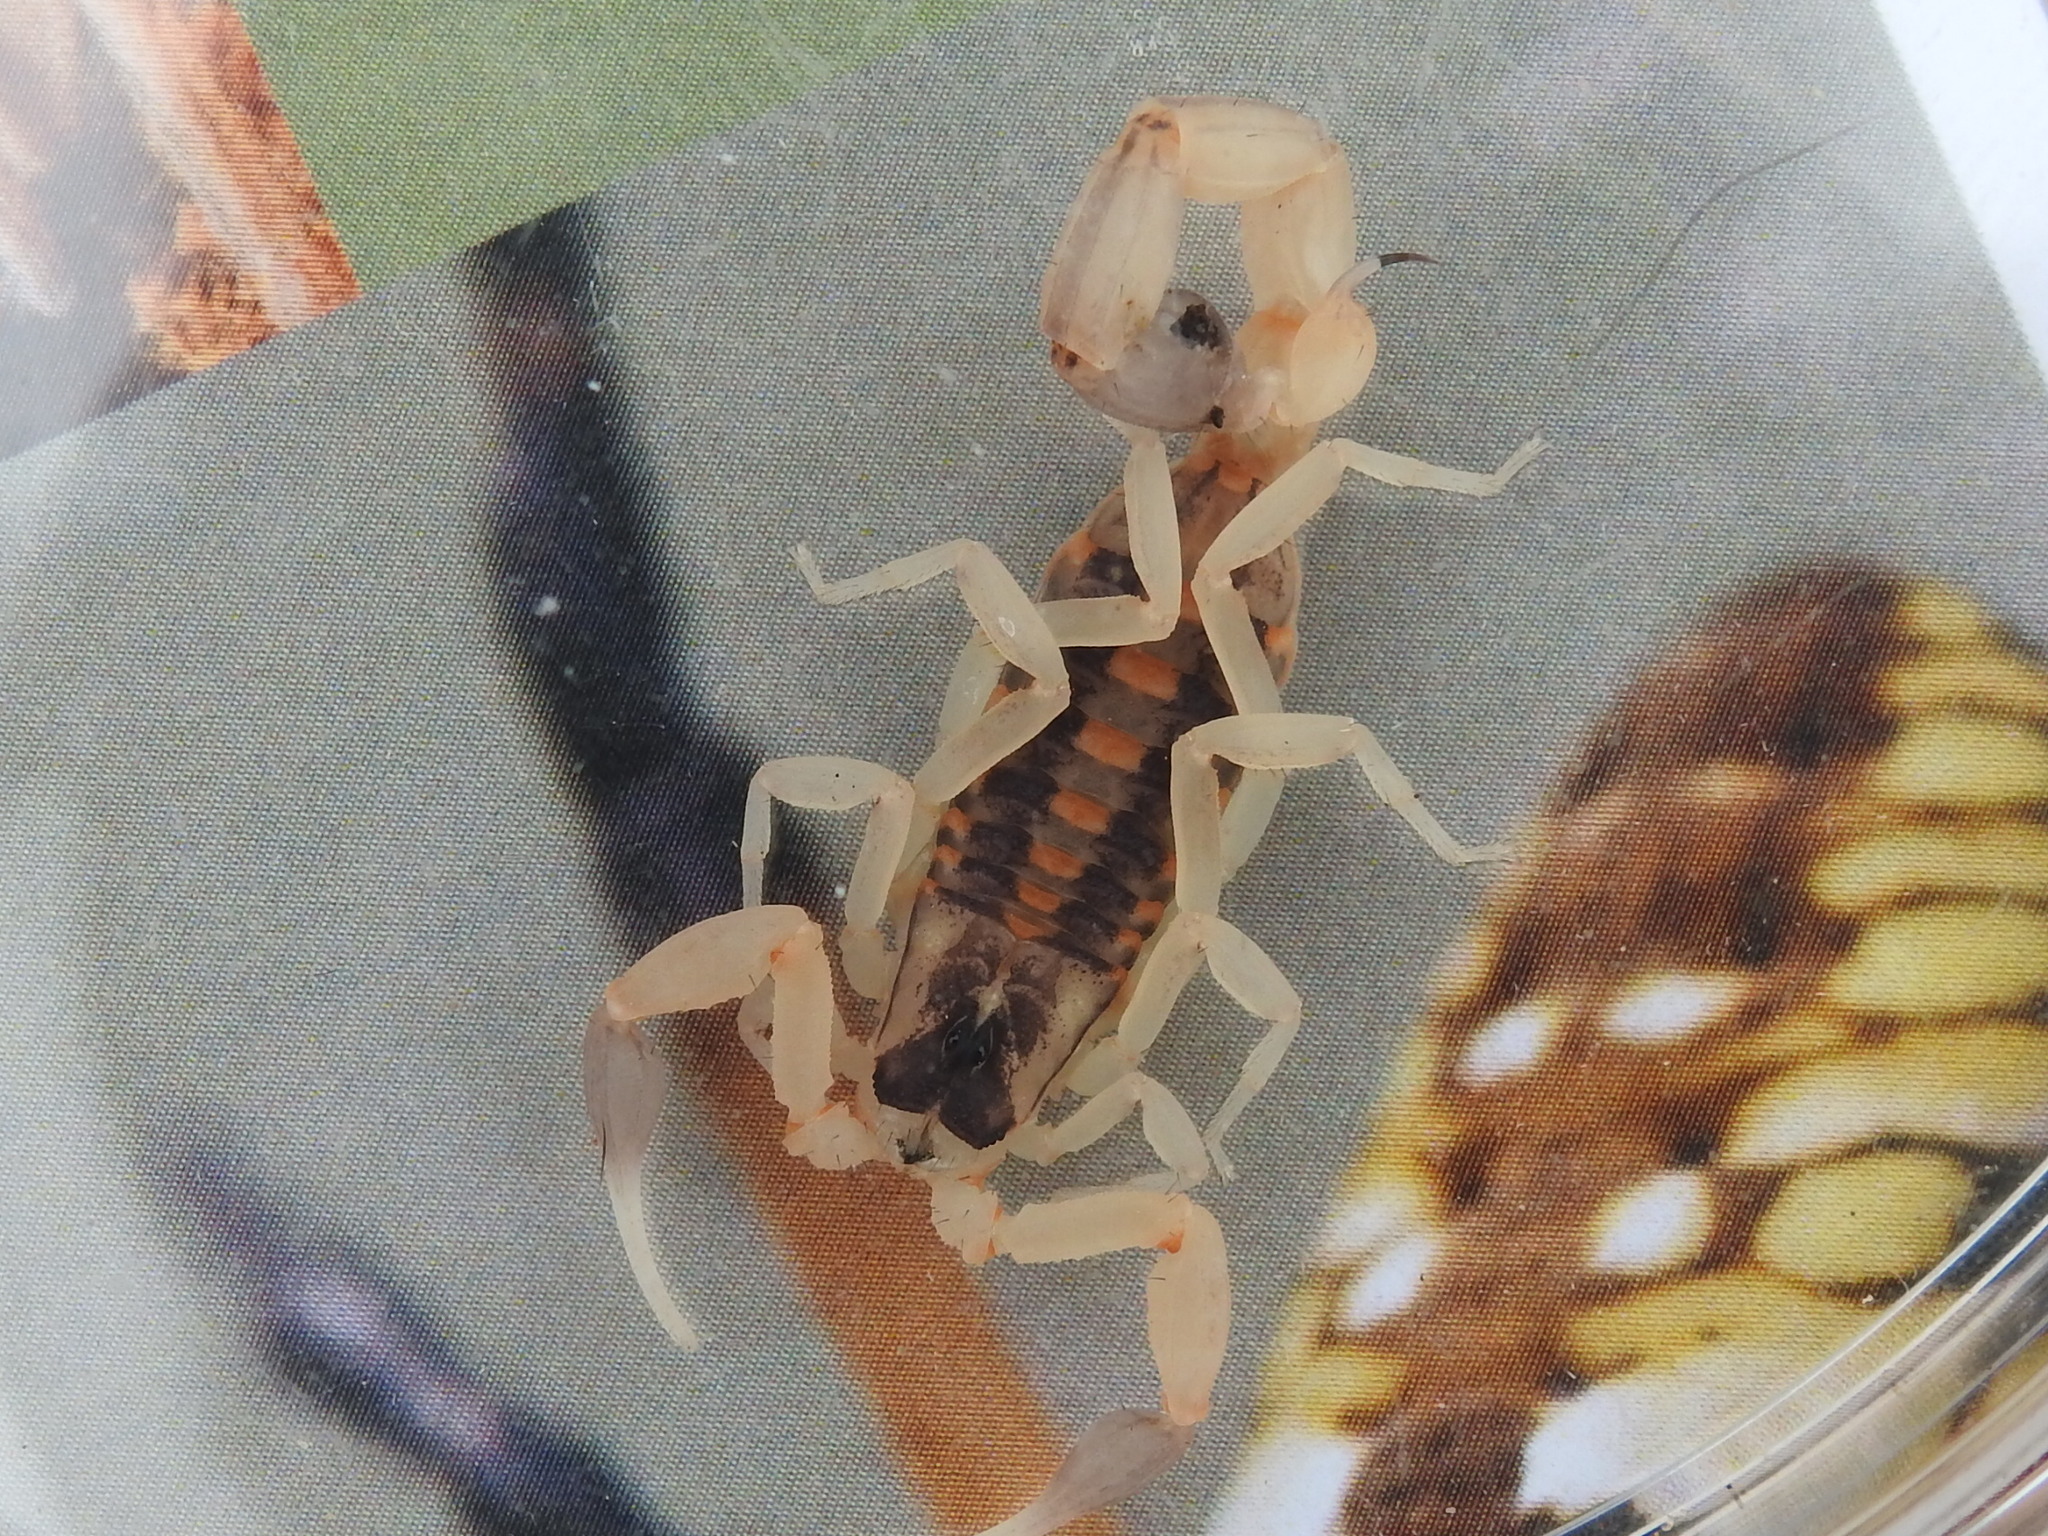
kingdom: Animalia
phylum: Arthropoda
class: Arachnida
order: Scorpiones
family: Buthidae
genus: Centruroides
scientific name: Centruroides vittatus
